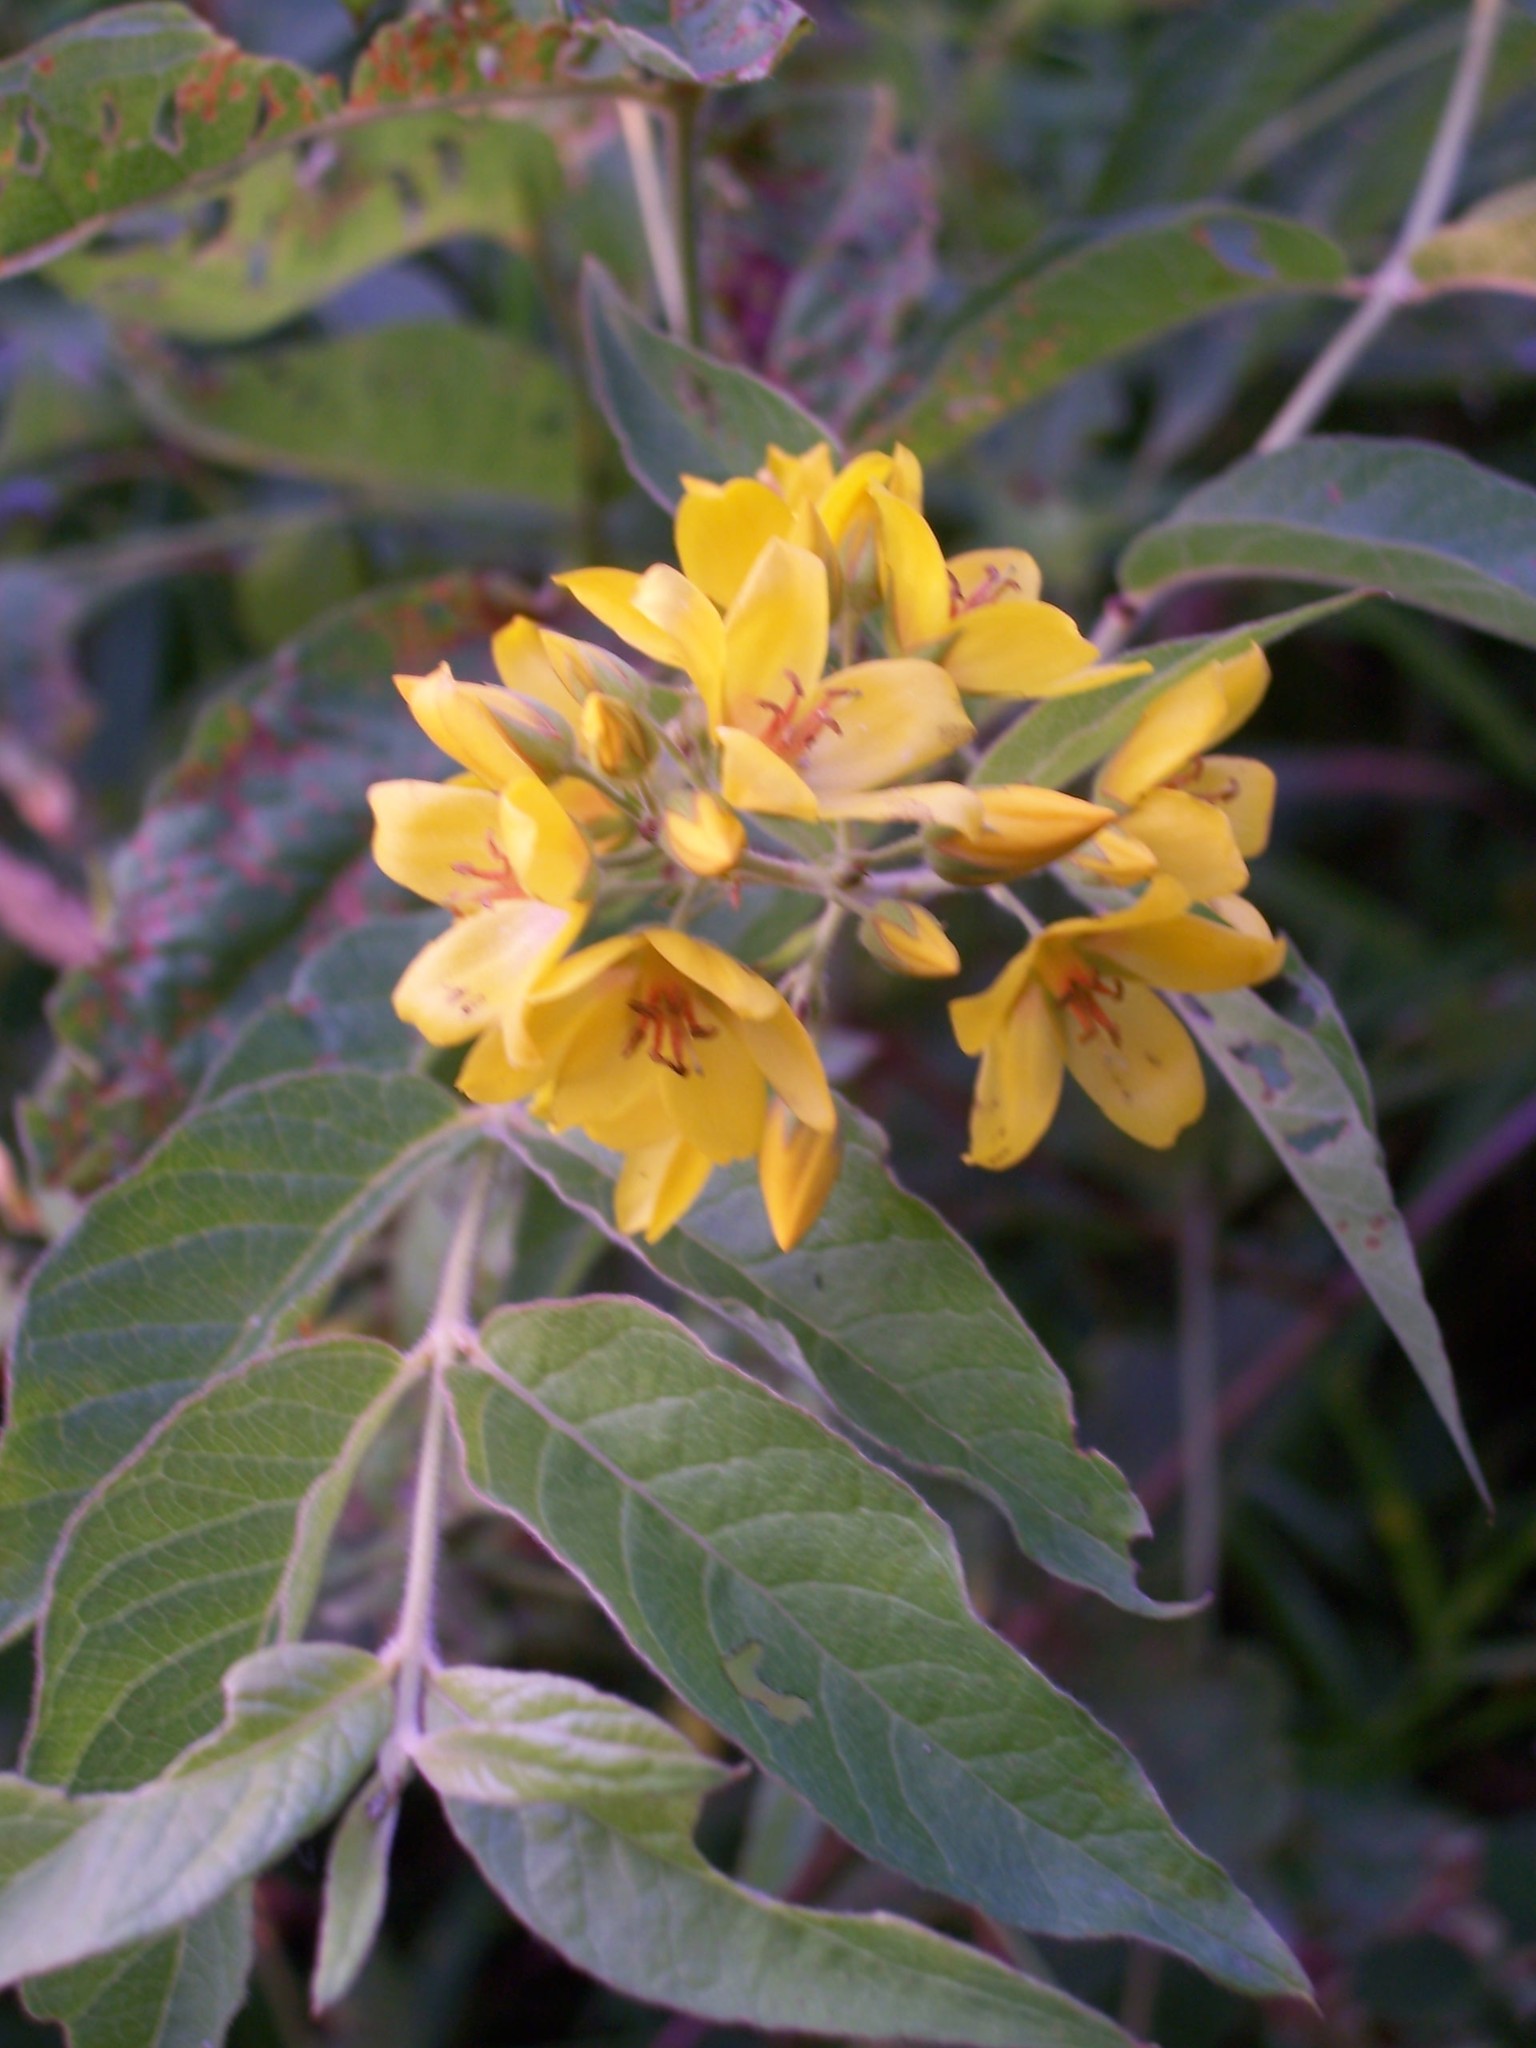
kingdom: Plantae
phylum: Tracheophyta
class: Magnoliopsida
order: Ericales
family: Primulaceae
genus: Lysimachia
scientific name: Lysimachia vulgaris
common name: Yellow loosestrife
